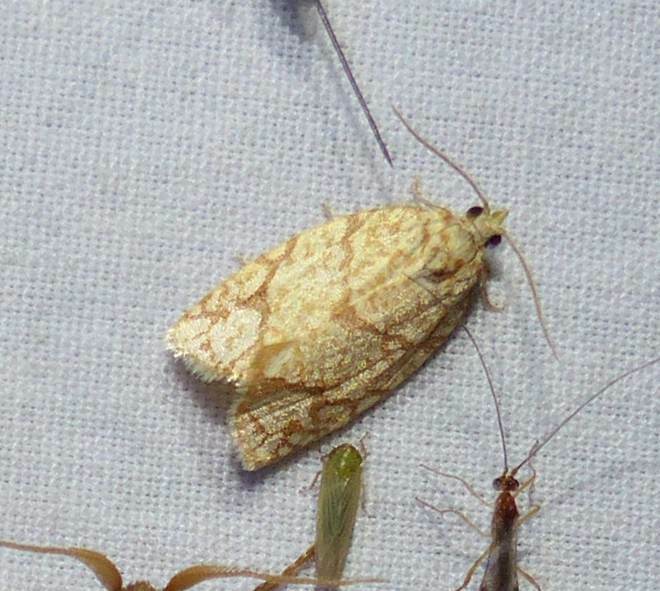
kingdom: Animalia
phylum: Arthropoda
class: Insecta
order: Lepidoptera
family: Tortricidae
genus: Argyrotaenia
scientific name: Argyrotaenia quercifoliana
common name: Yellow-winged oak leafroller moth
